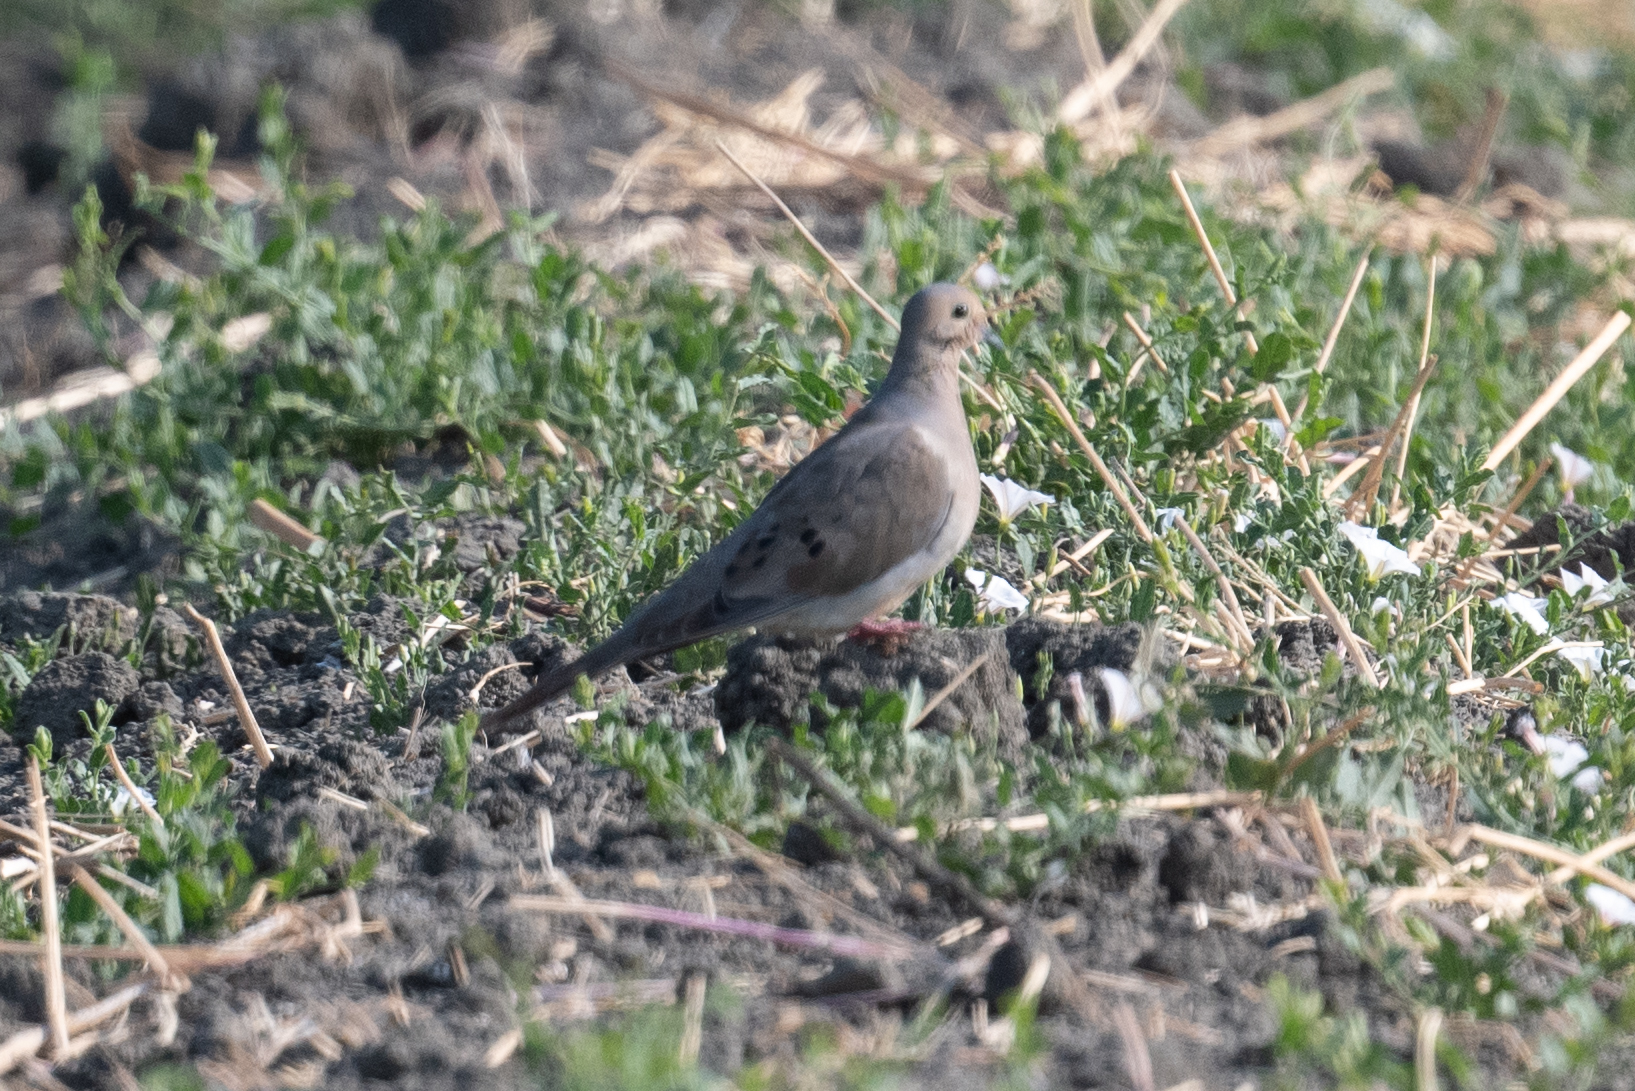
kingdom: Animalia
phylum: Chordata
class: Aves
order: Columbiformes
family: Columbidae
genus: Zenaida
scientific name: Zenaida macroura
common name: Mourning dove
